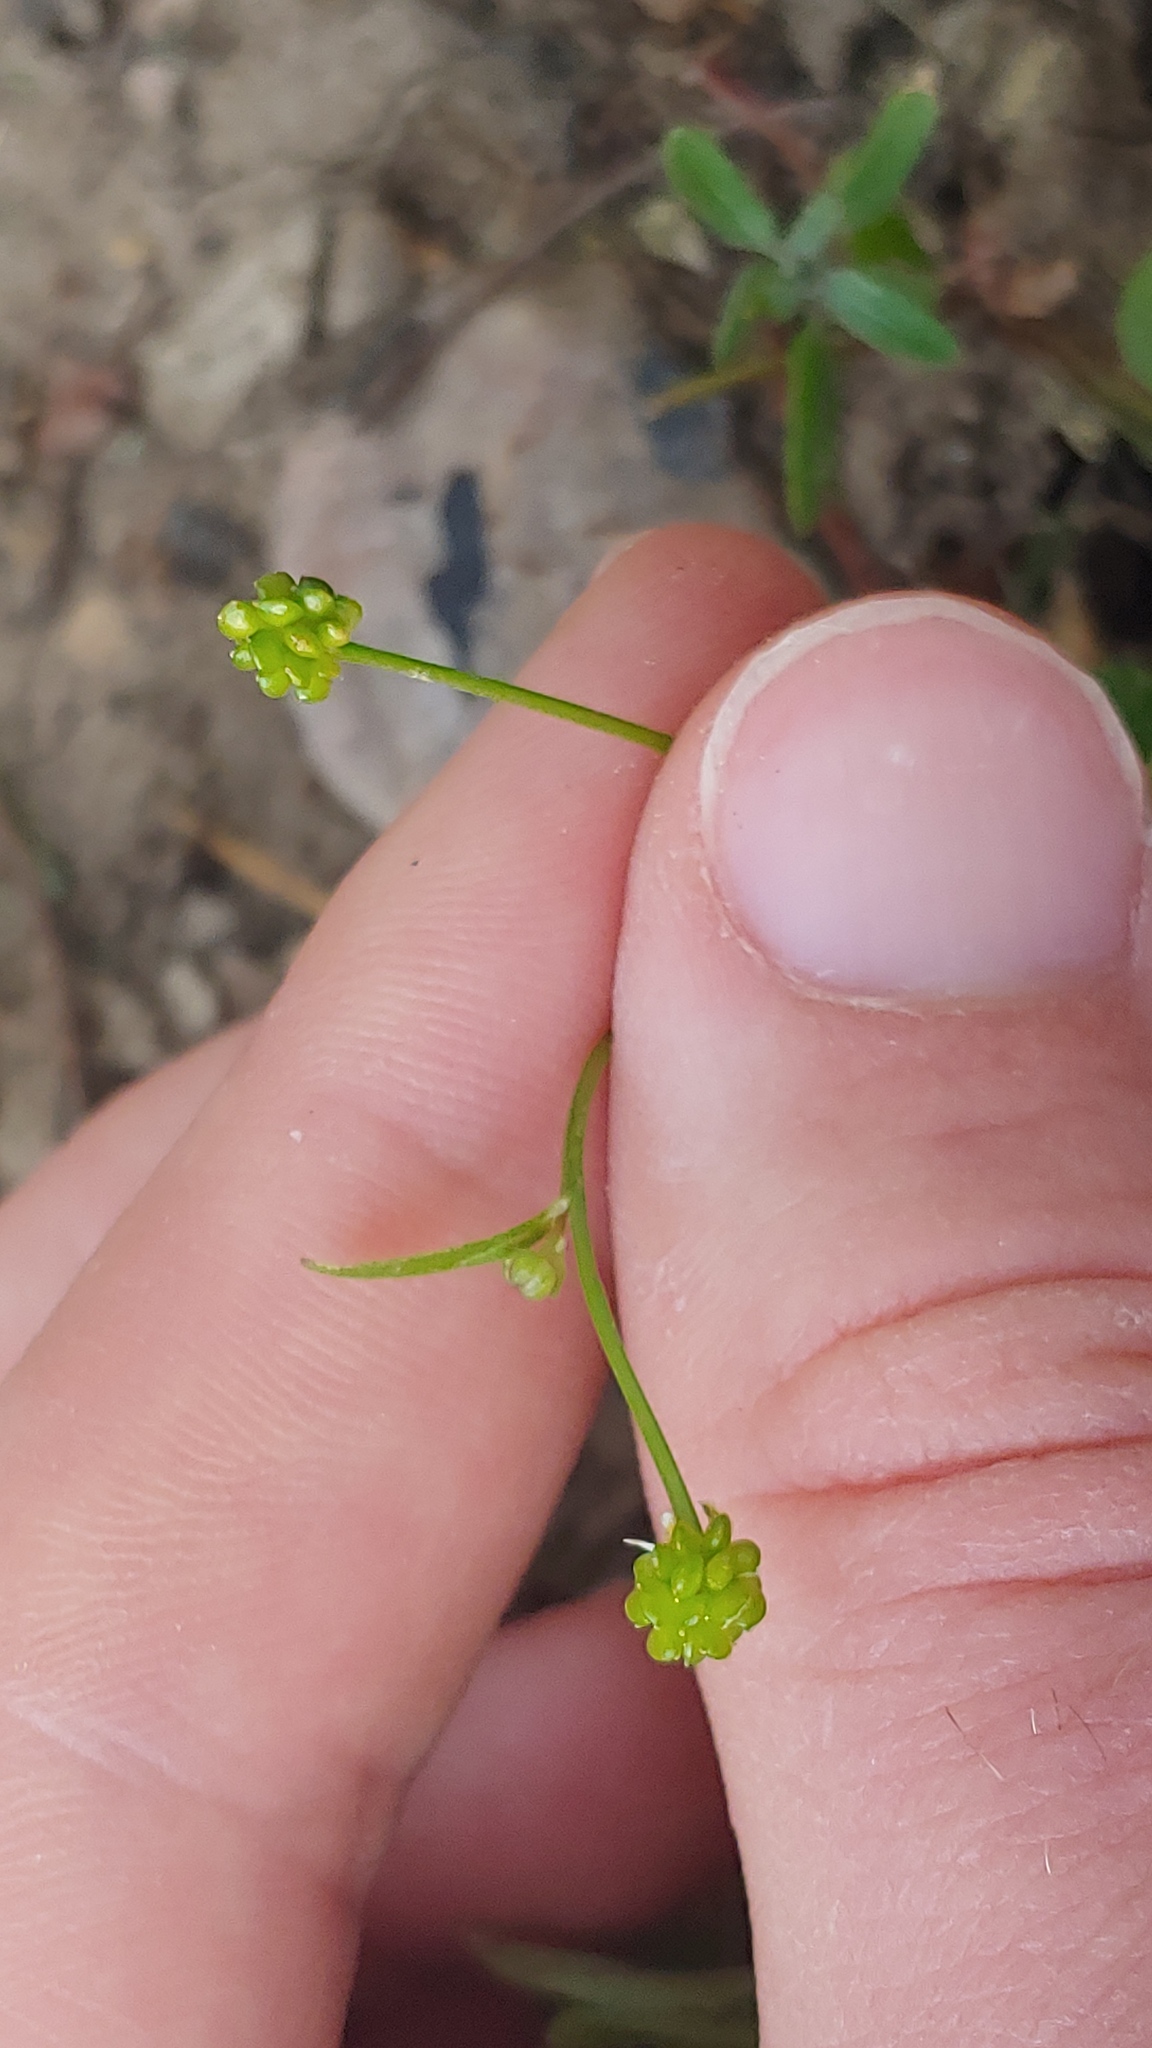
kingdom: Plantae
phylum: Tracheophyta
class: Magnoliopsida
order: Ranunculales
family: Ranunculaceae
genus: Ranunculus
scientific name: Ranunculus abortivus
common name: Early wood buttercup
